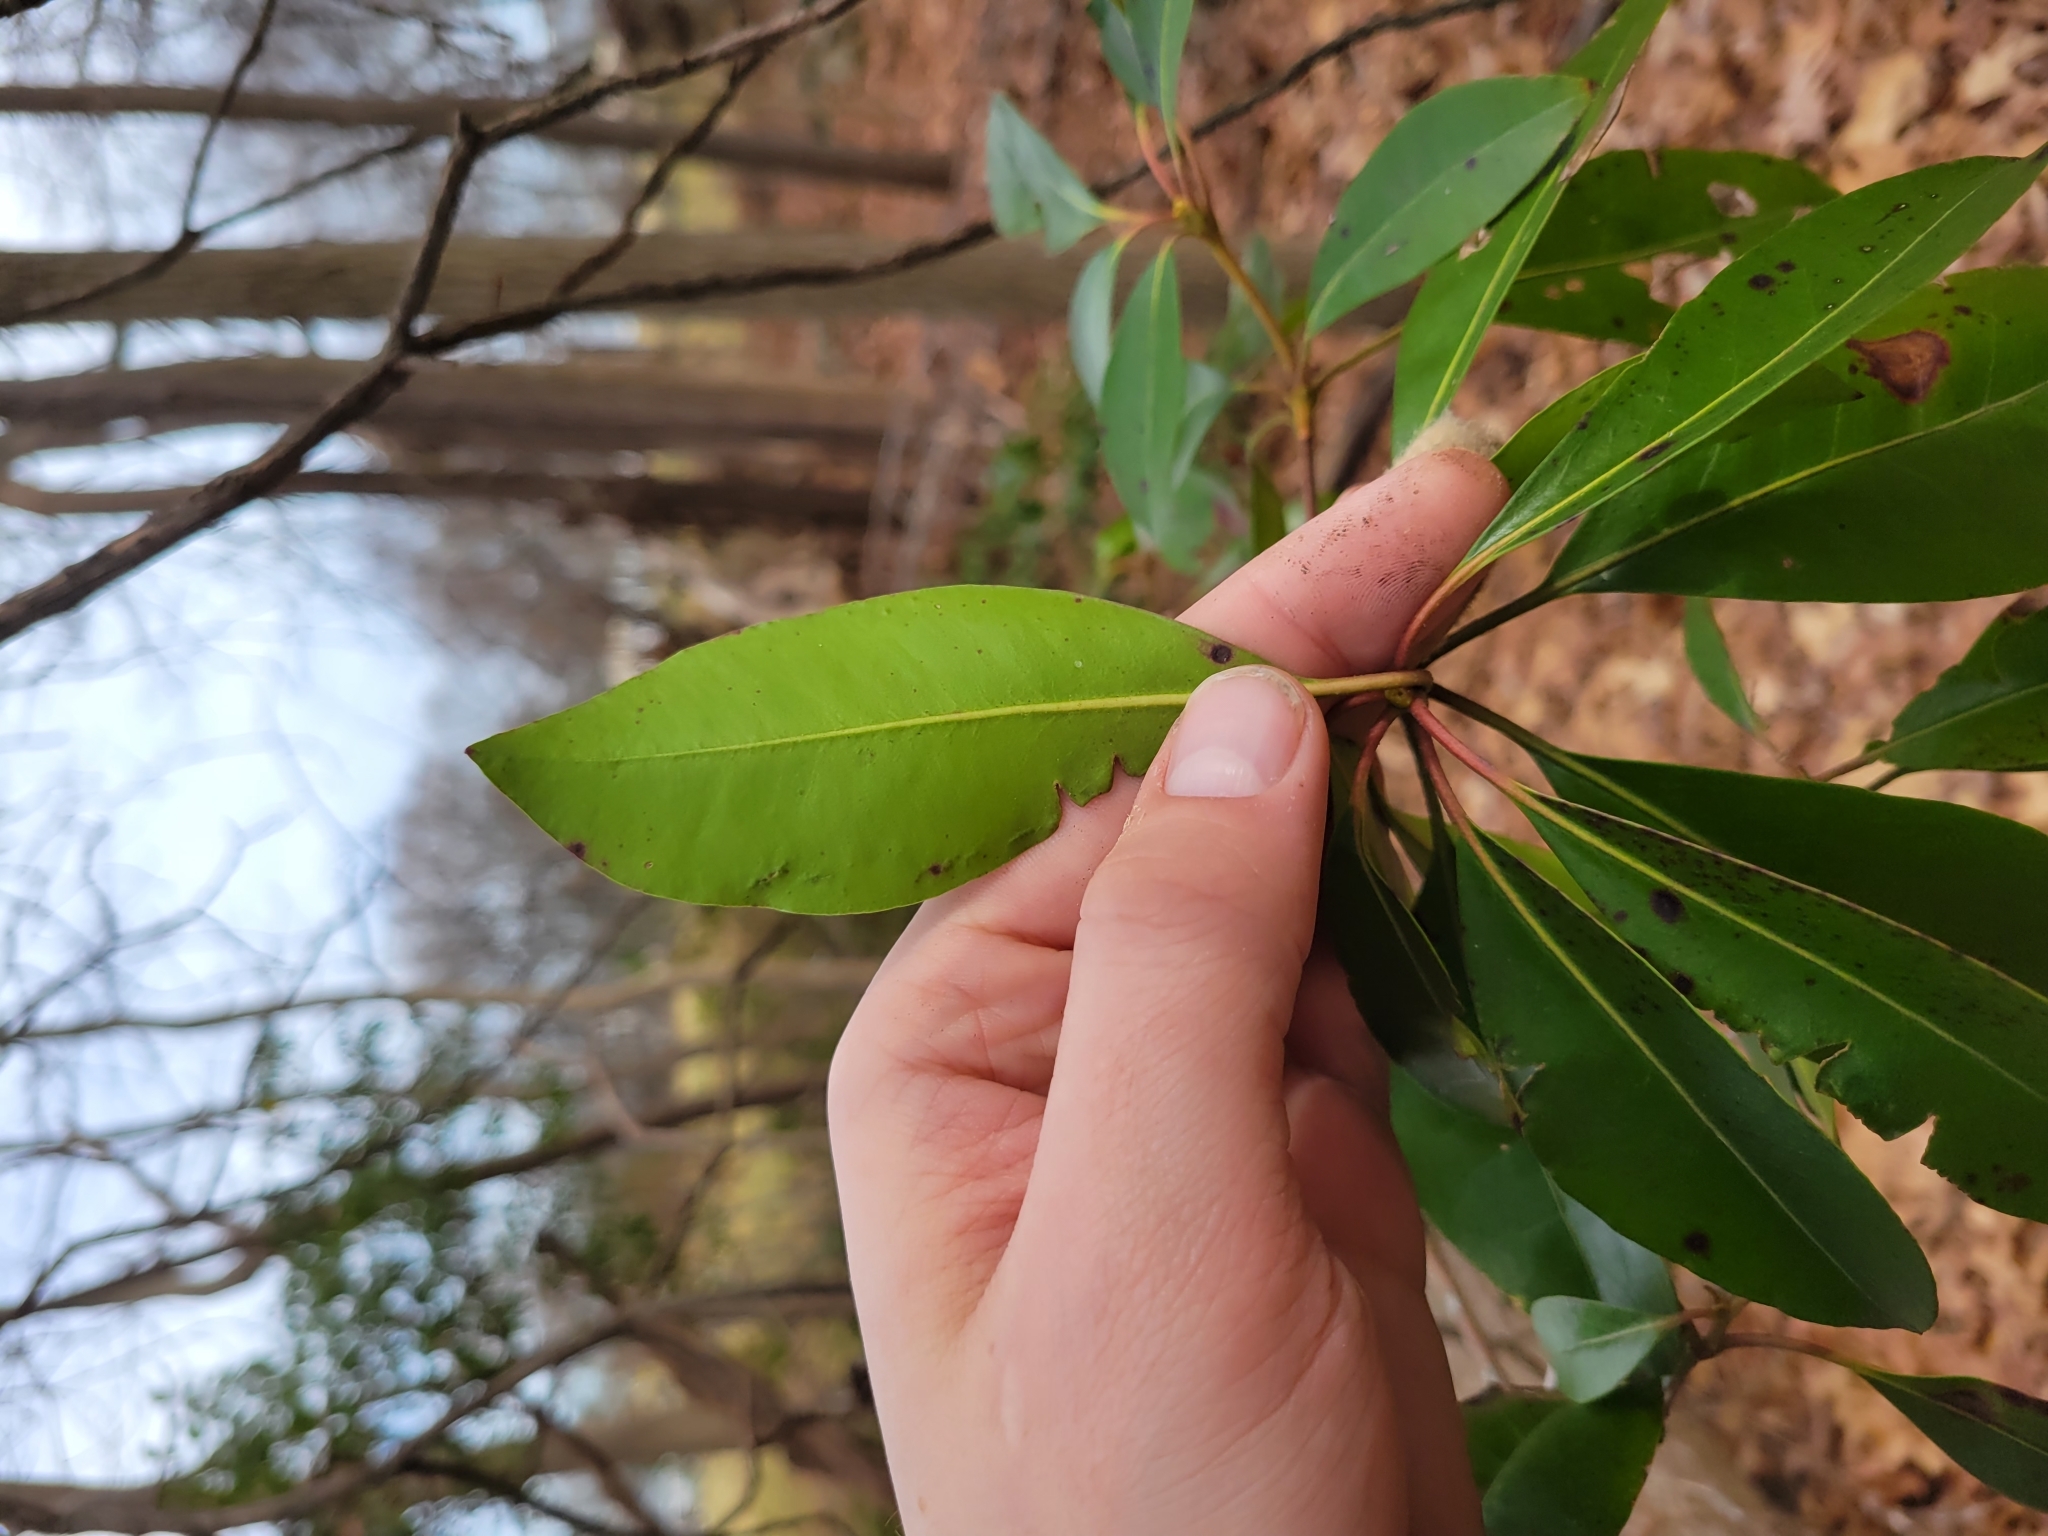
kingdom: Plantae
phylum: Tracheophyta
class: Magnoliopsida
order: Ericales
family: Ericaceae
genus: Kalmia
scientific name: Kalmia latifolia
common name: Mountain-laurel
